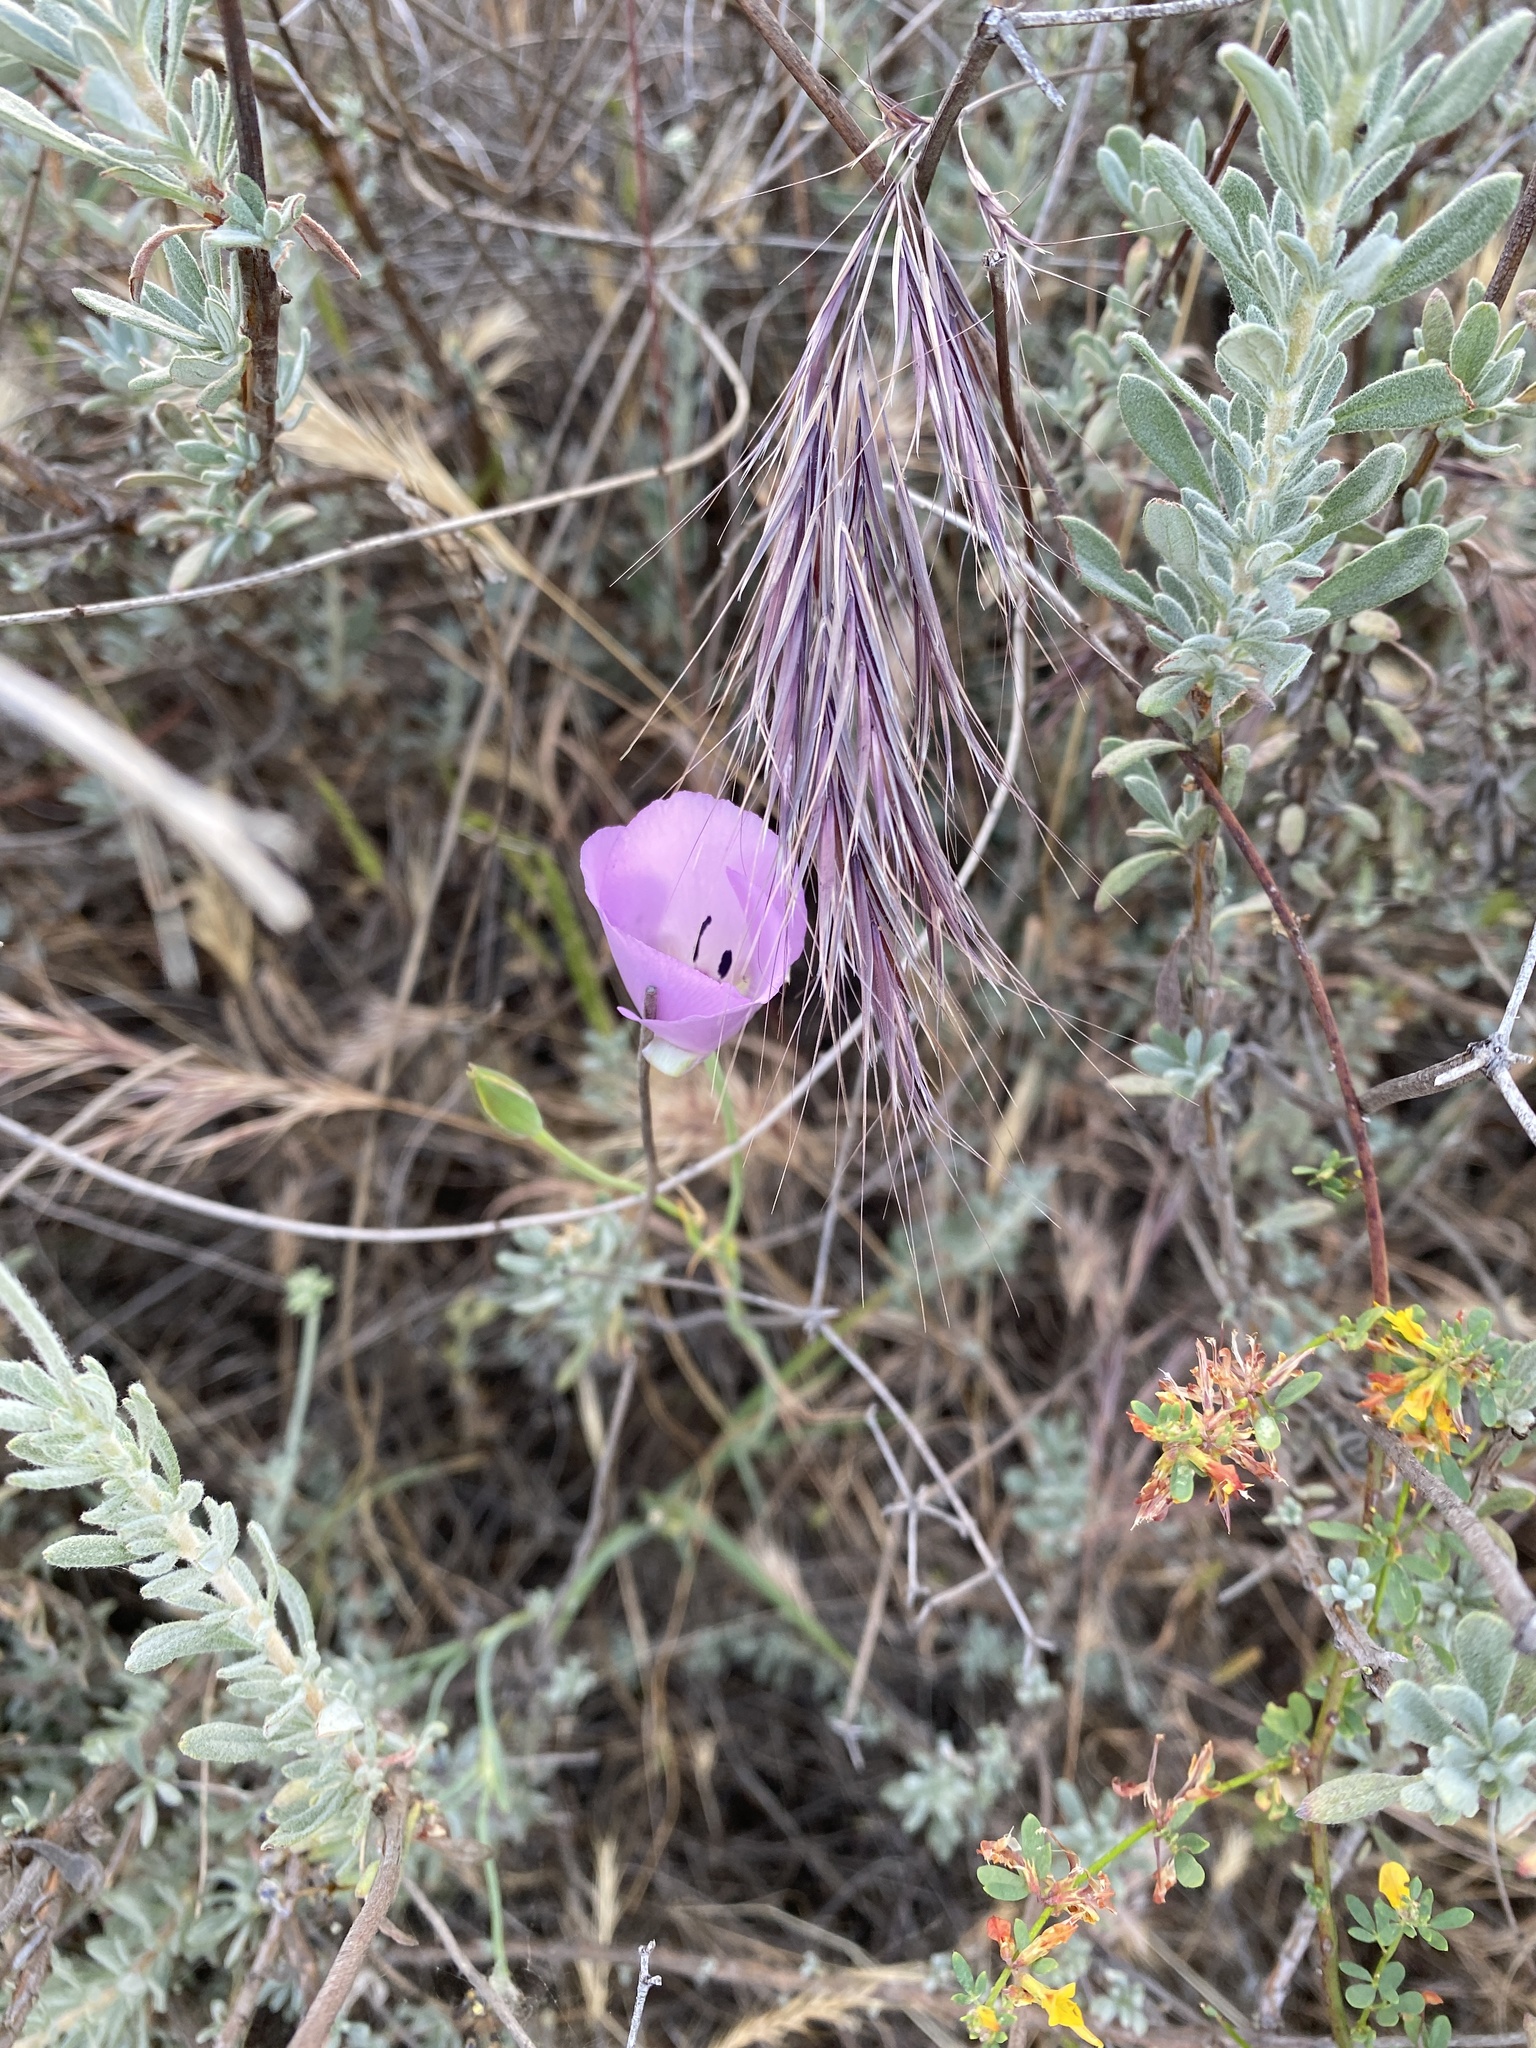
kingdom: Plantae
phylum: Tracheophyta
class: Liliopsida
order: Liliales
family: Liliaceae
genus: Calochortus
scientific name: Calochortus splendens
